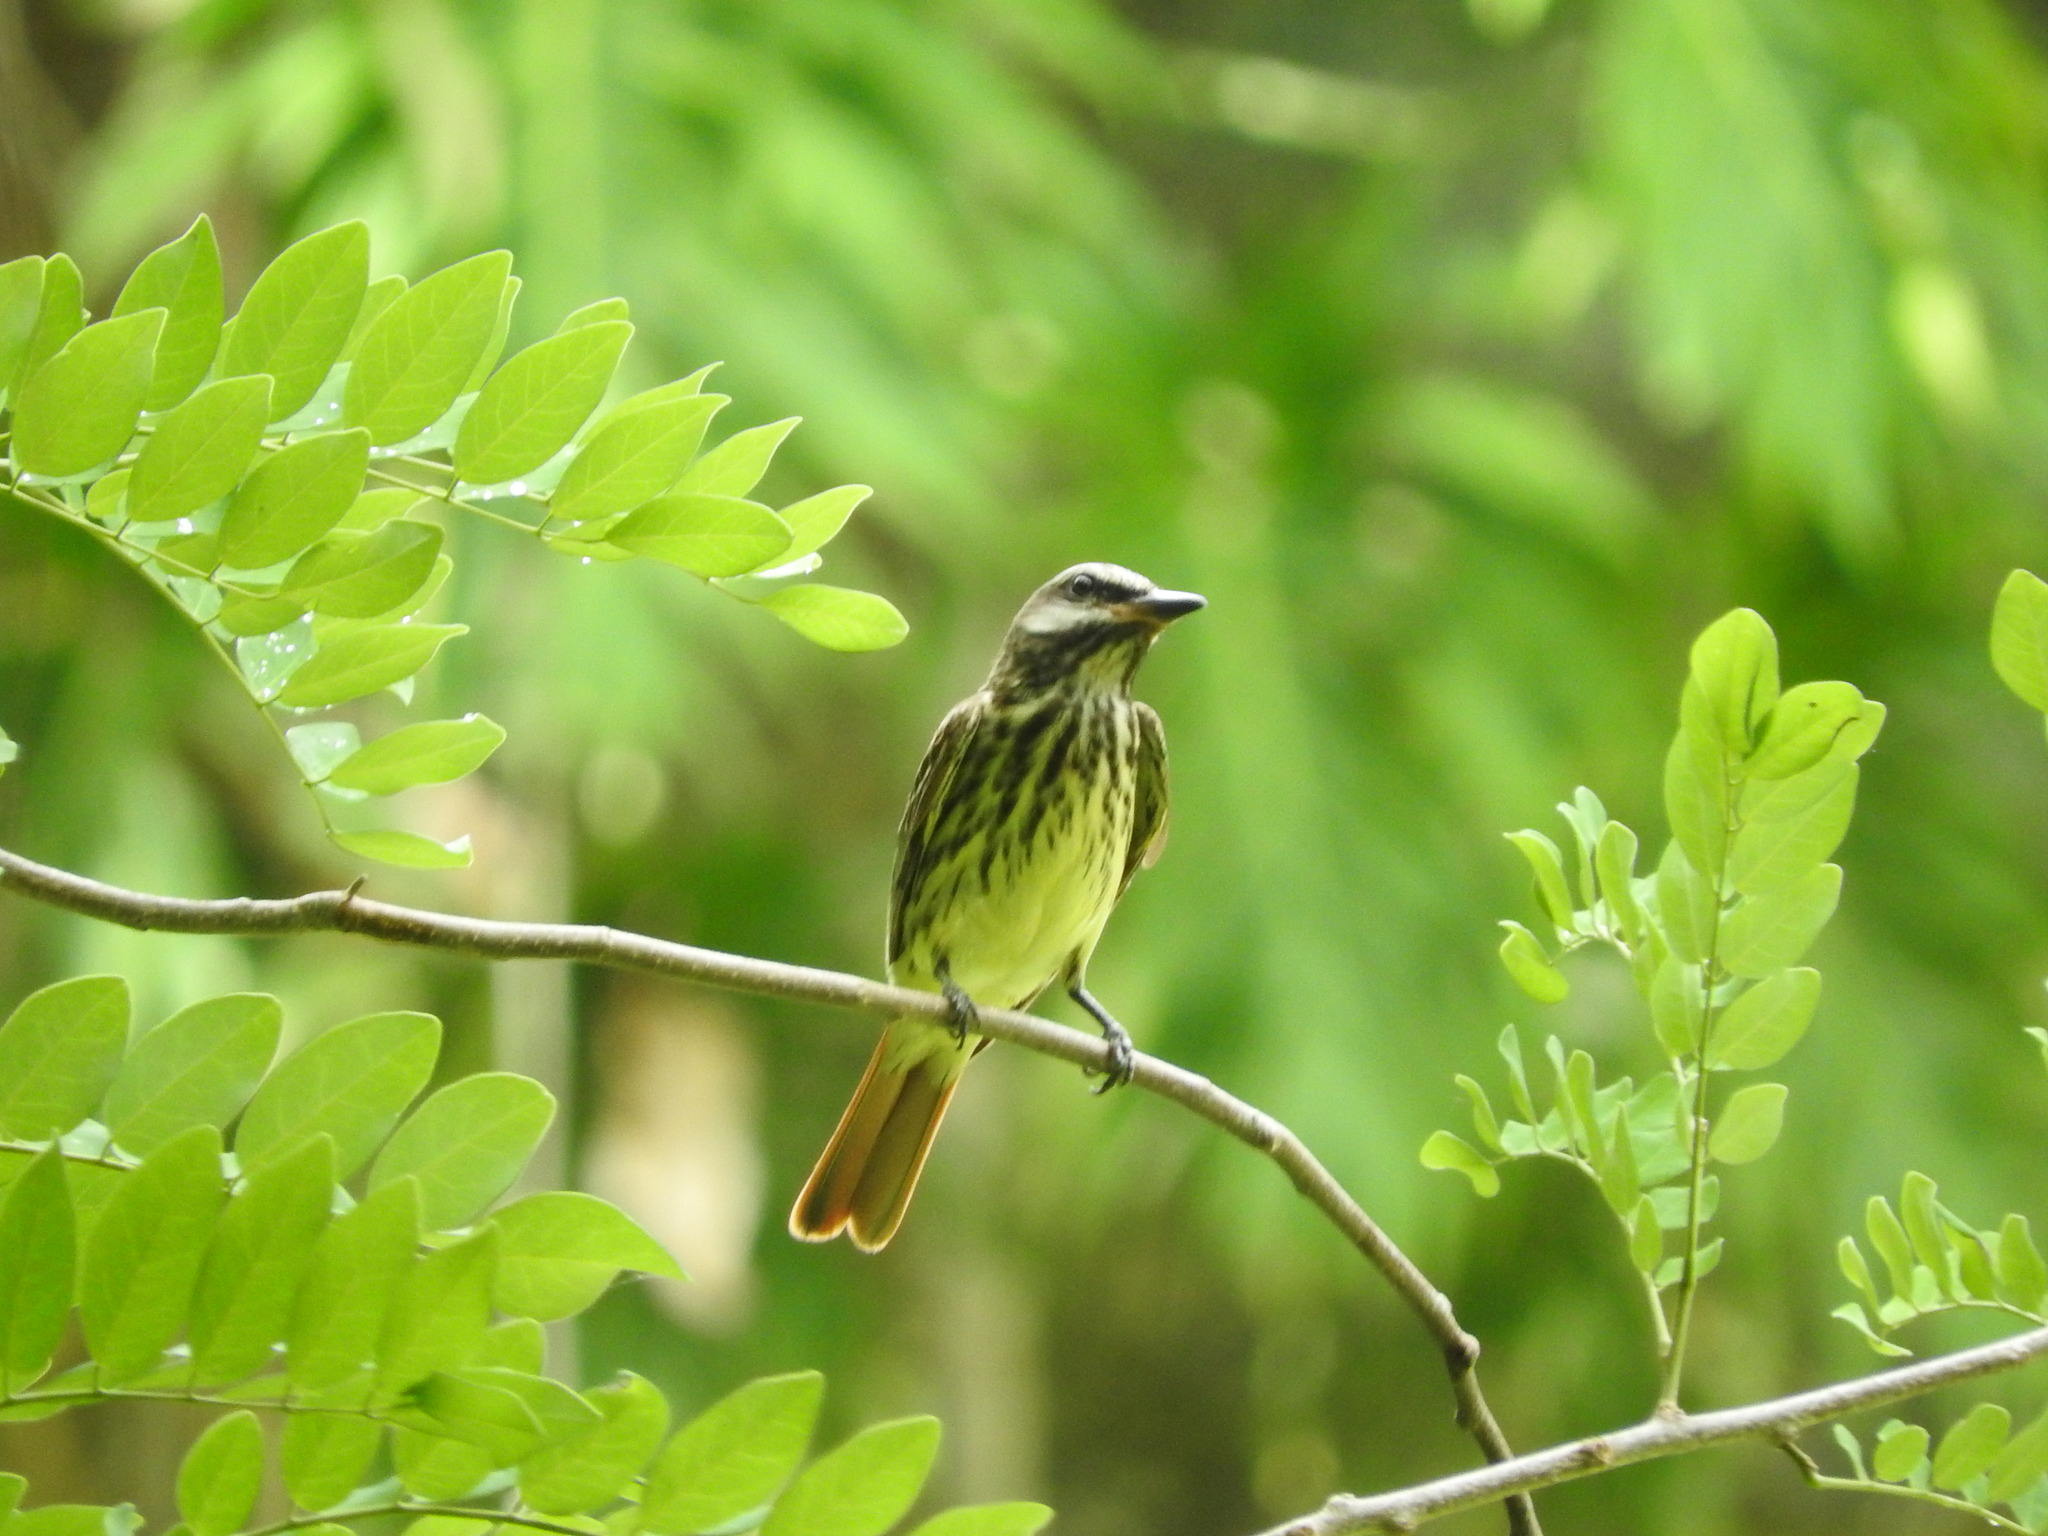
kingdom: Animalia
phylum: Chordata
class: Aves
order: Passeriformes
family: Tyrannidae
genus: Myiodynastes
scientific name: Myiodynastes luteiventris
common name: Sulphur-bellied flycatcher
